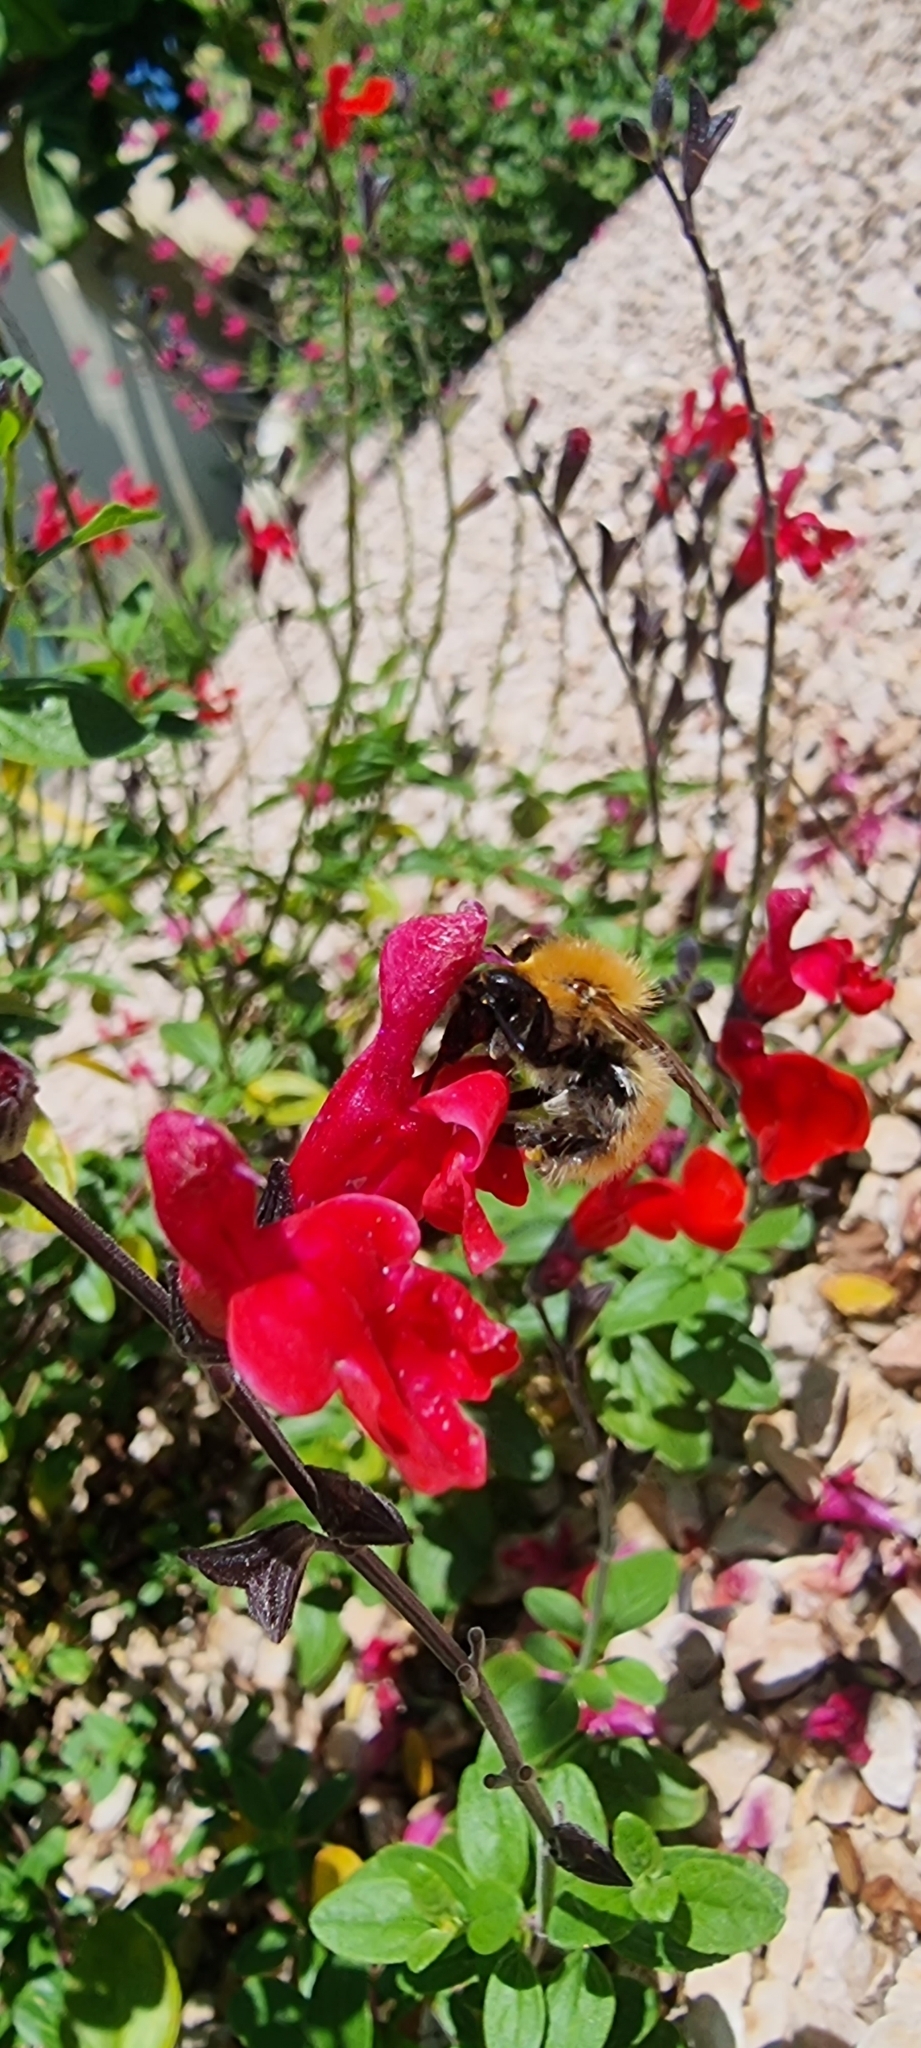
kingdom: Animalia
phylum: Arthropoda
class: Insecta
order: Hymenoptera
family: Apidae
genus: Bombus
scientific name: Bombus pascuorum
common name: Common carder bee
